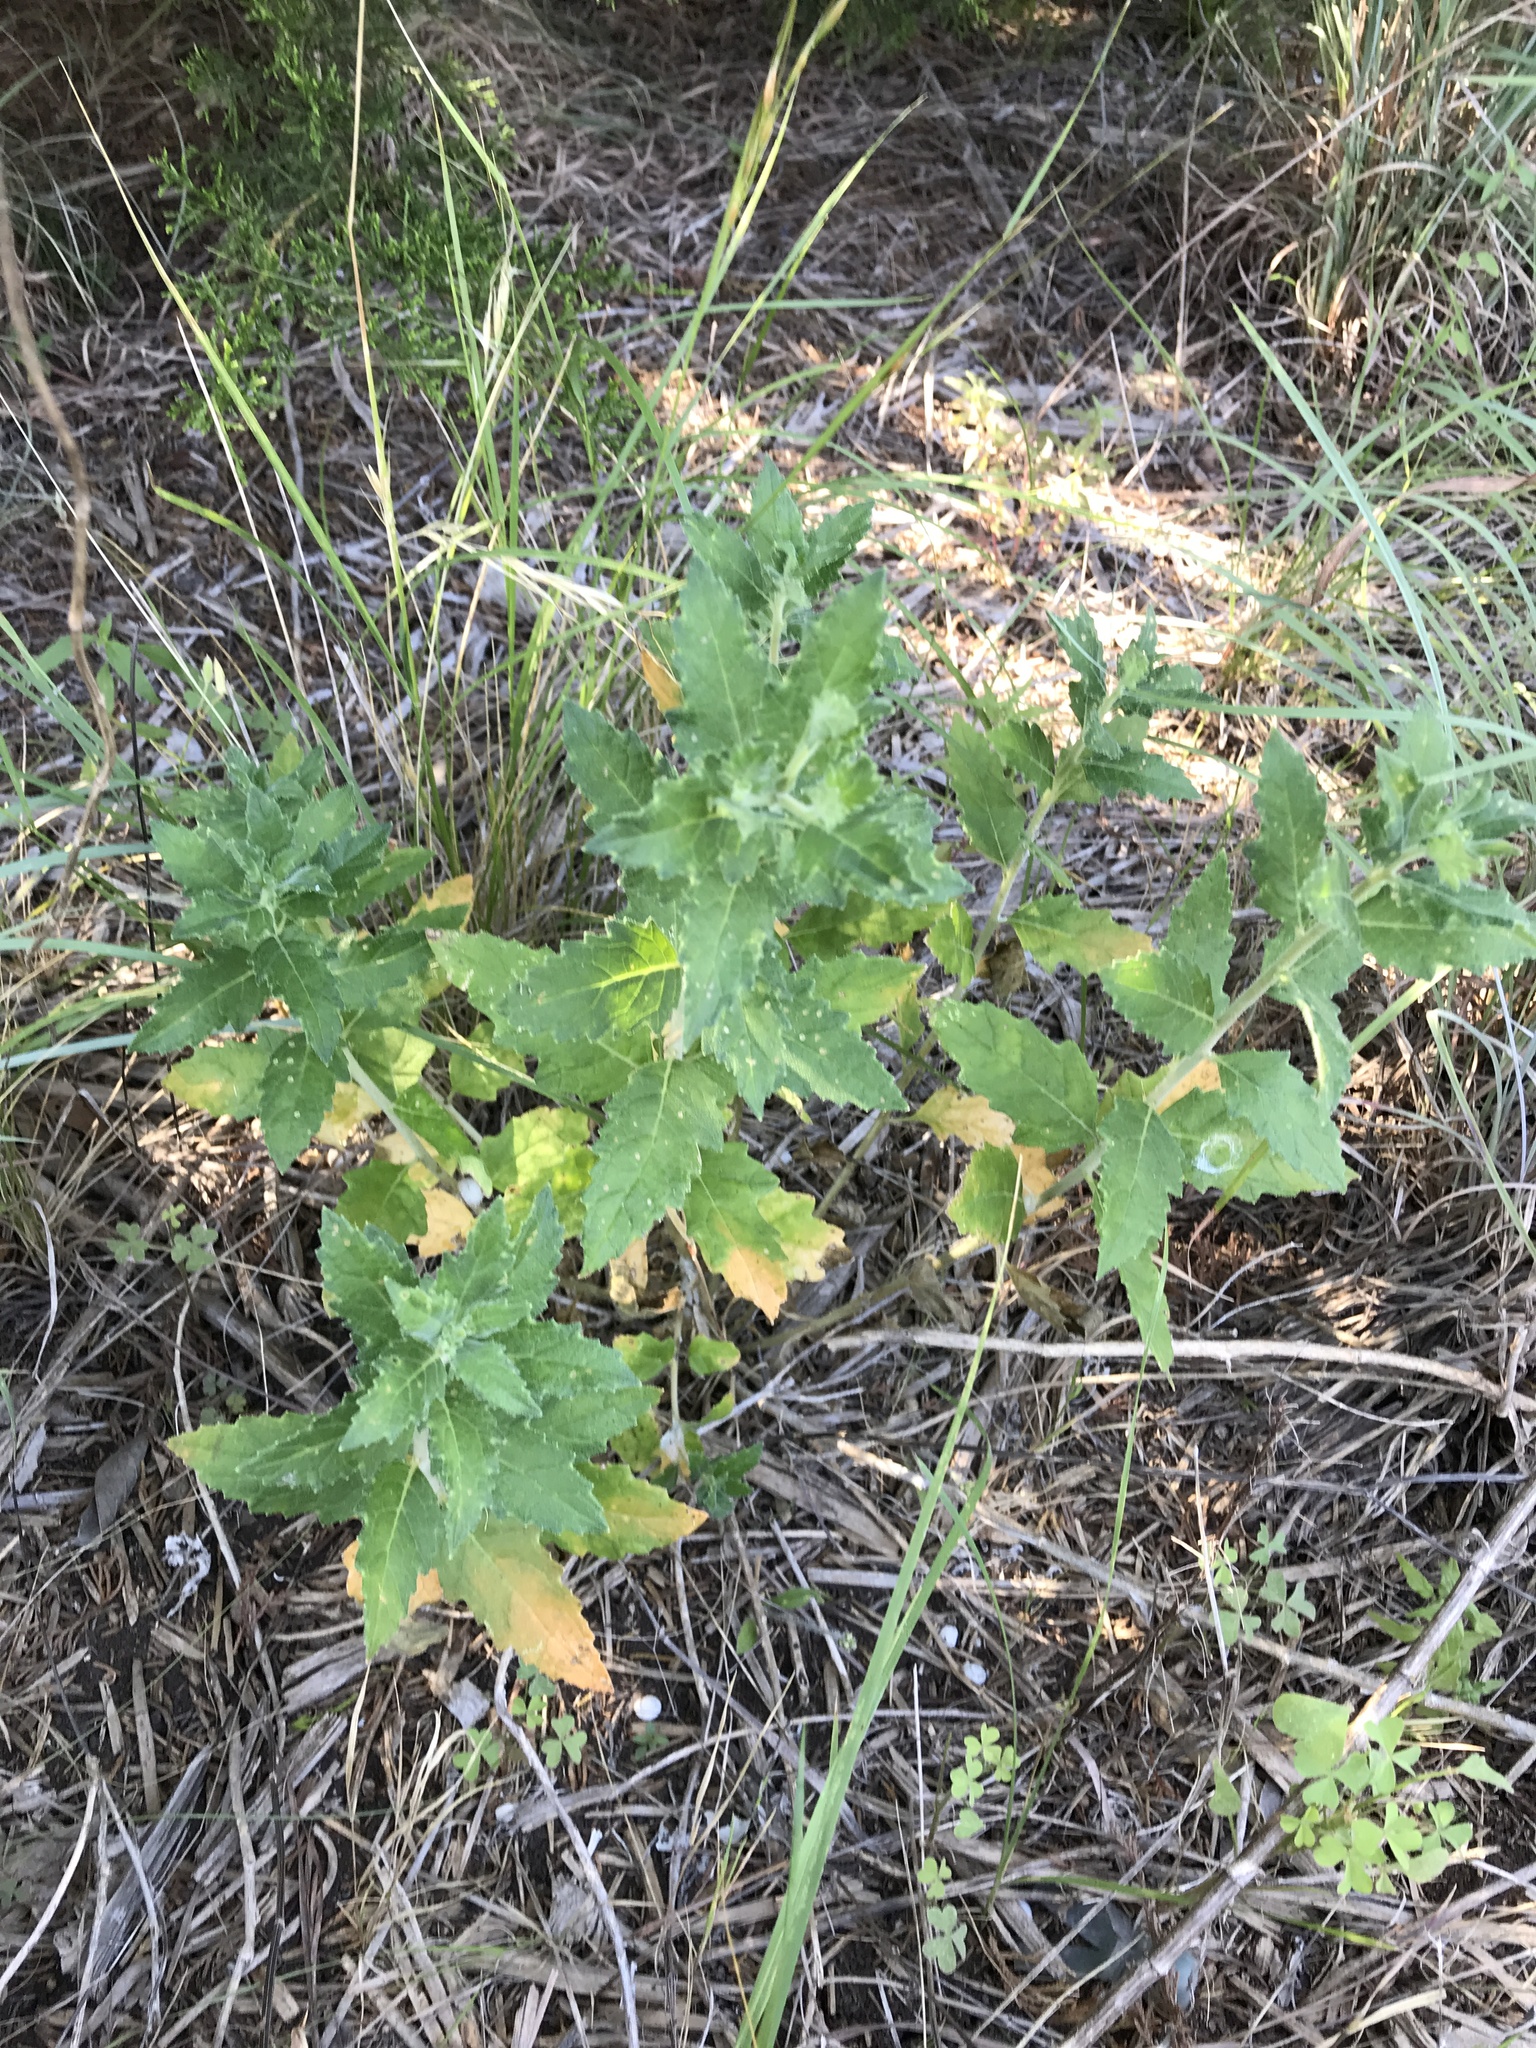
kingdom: Plantae
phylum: Tracheophyta
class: Magnoliopsida
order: Cornales
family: Loasaceae
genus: Mentzelia
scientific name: Mentzelia oligosperma
